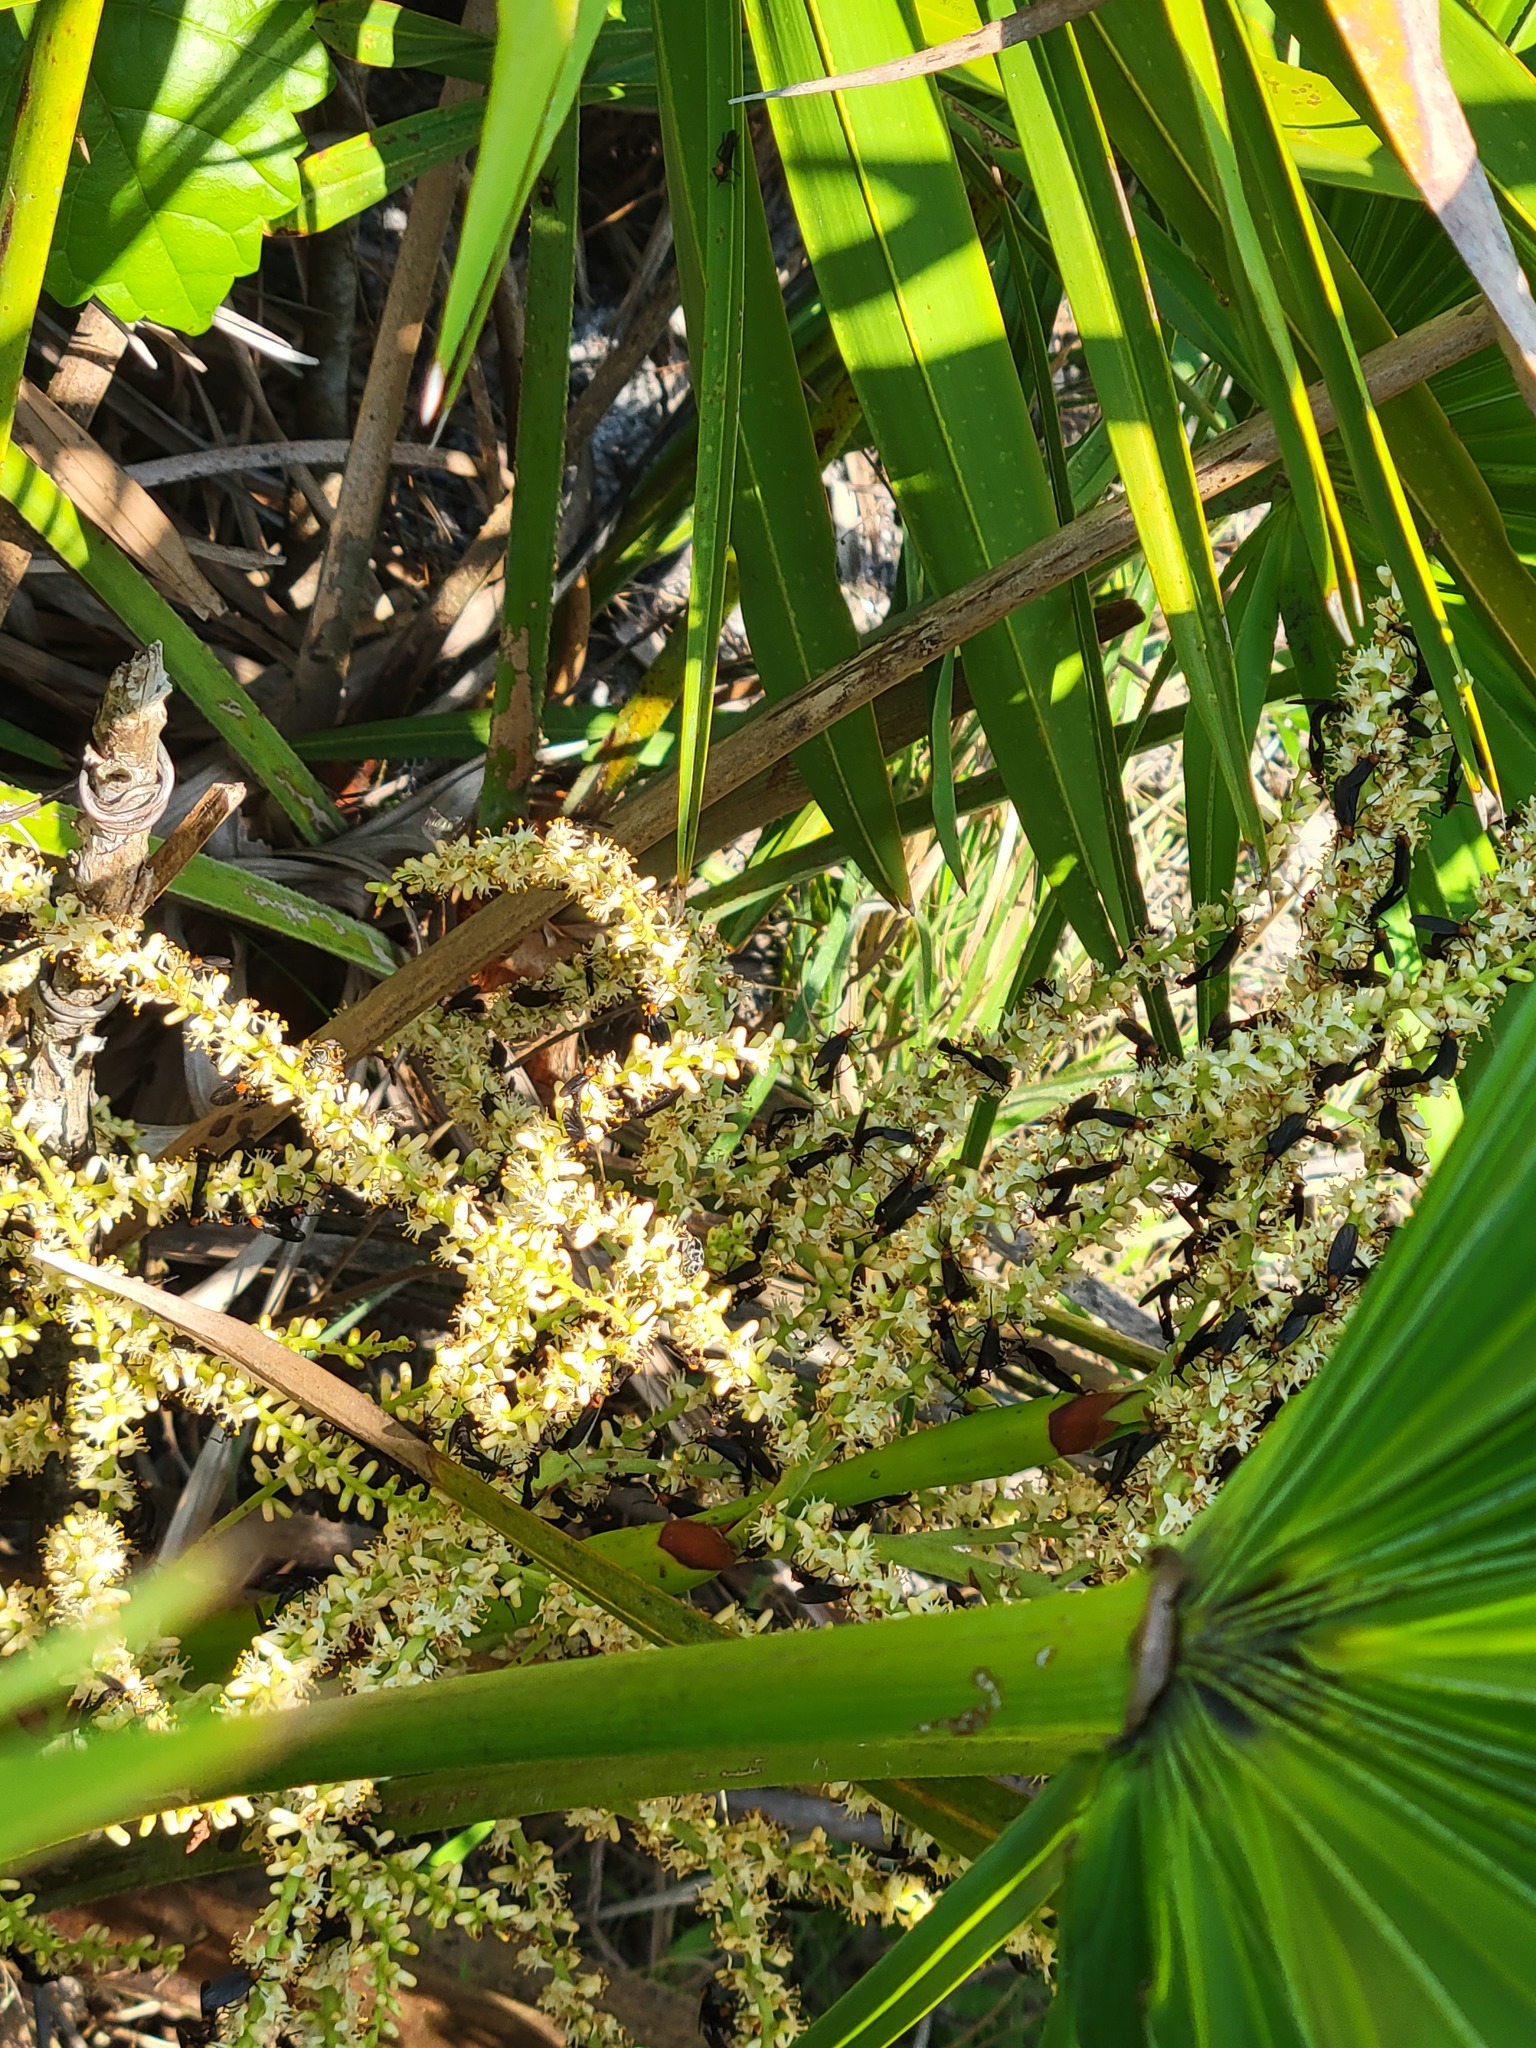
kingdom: Animalia
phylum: Arthropoda
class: Insecta
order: Diptera
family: Bibionidae
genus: Plecia
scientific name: Plecia nearctica
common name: March fly
